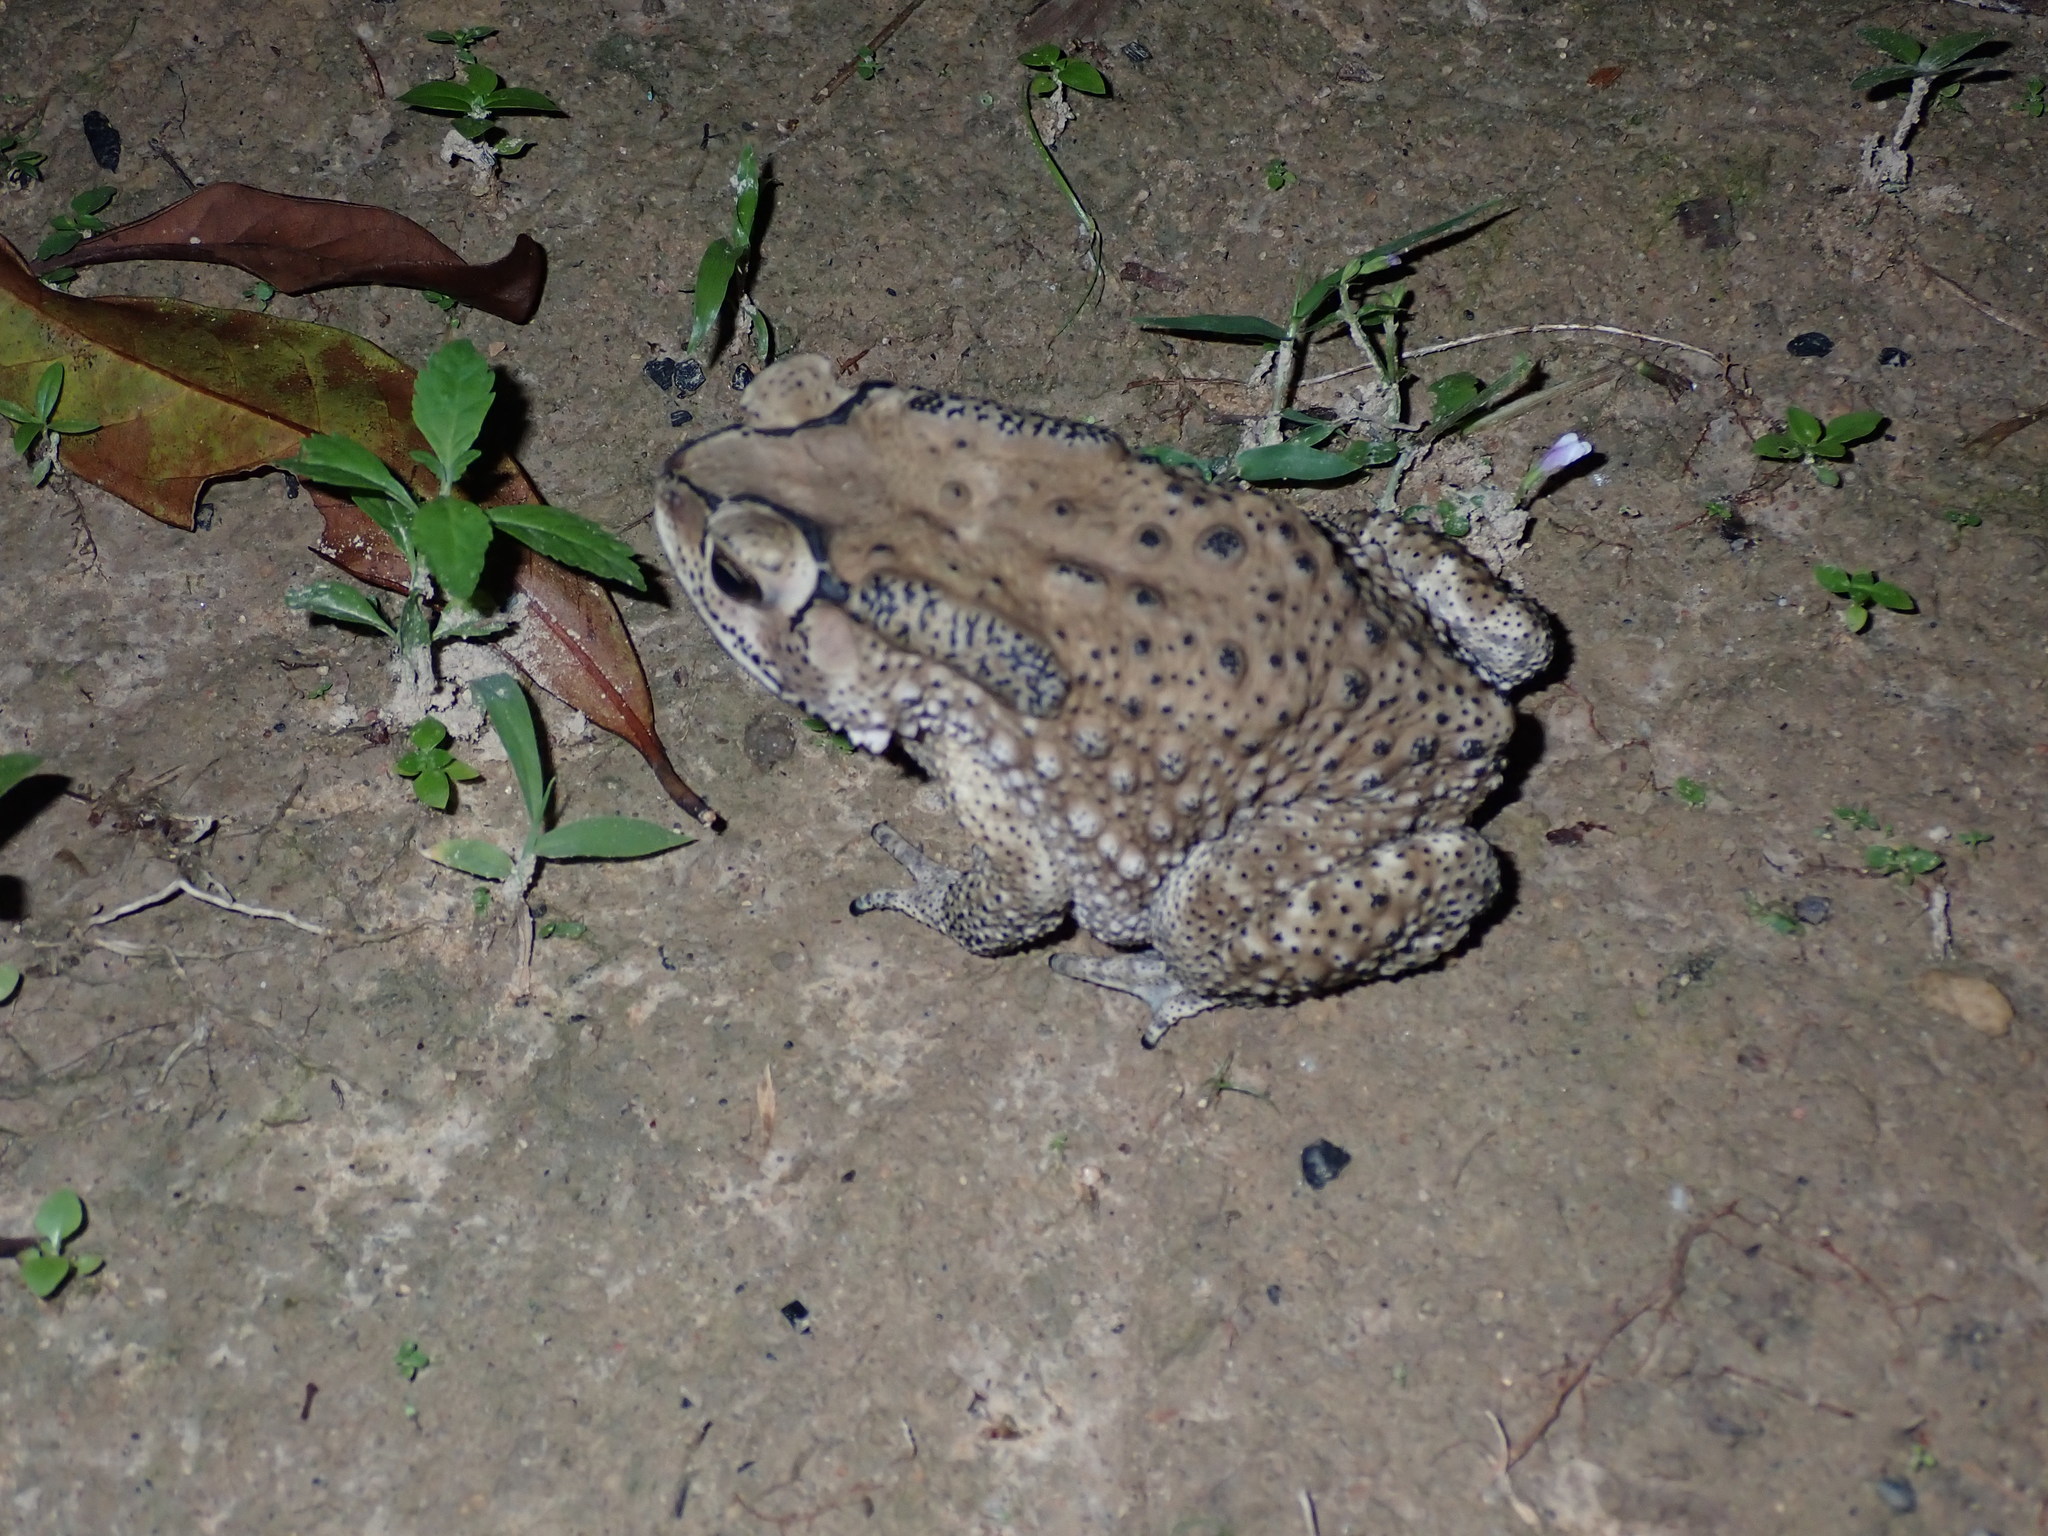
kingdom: Animalia
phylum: Chordata
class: Amphibia
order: Anura
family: Bufonidae
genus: Duttaphrynus
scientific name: Duttaphrynus melanostictus
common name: Common sunda toad
